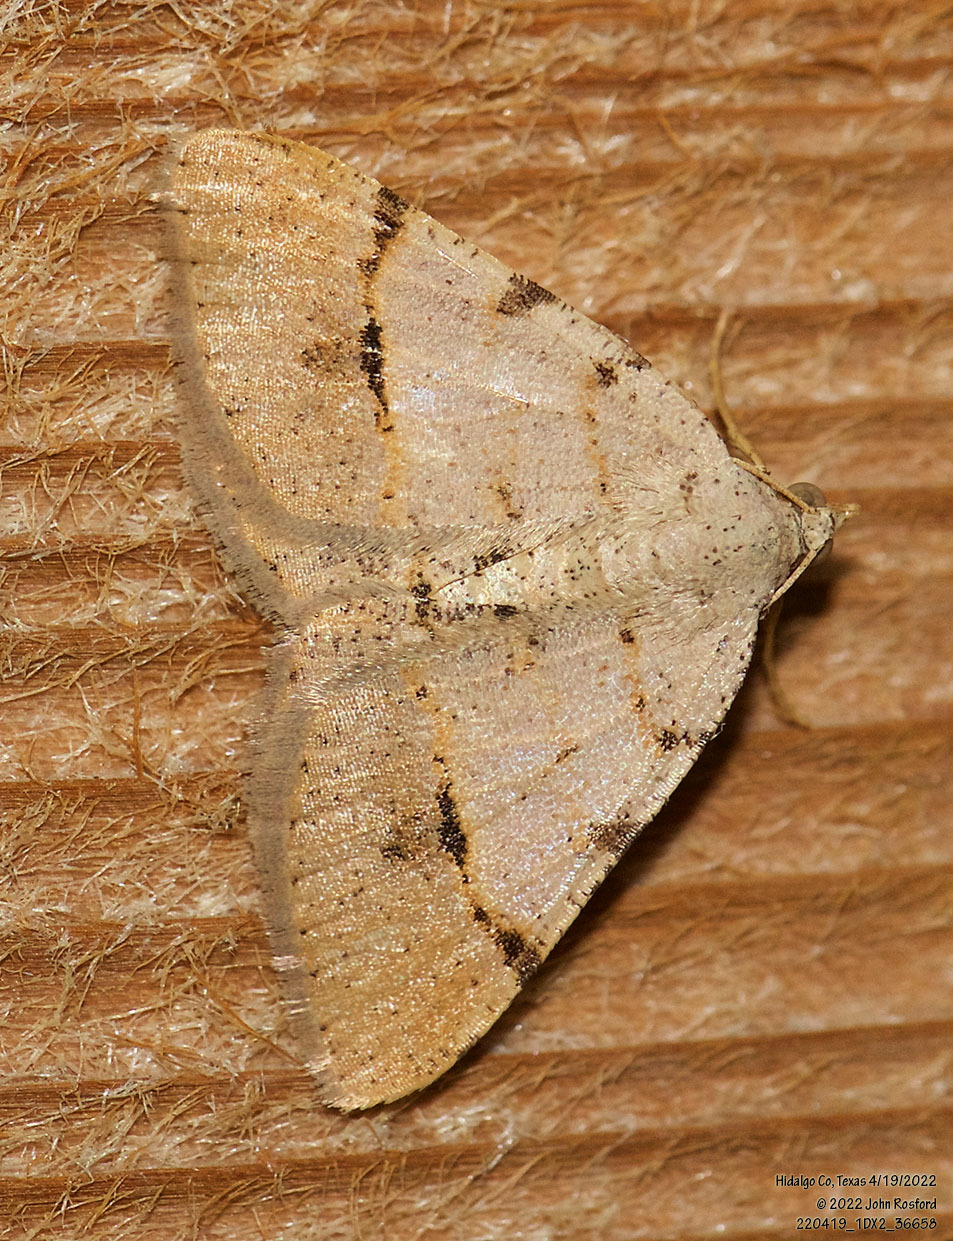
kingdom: Animalia
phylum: Arthropoda
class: Insecta
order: Lepidoptera
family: Geometridae
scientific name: Geometridae
